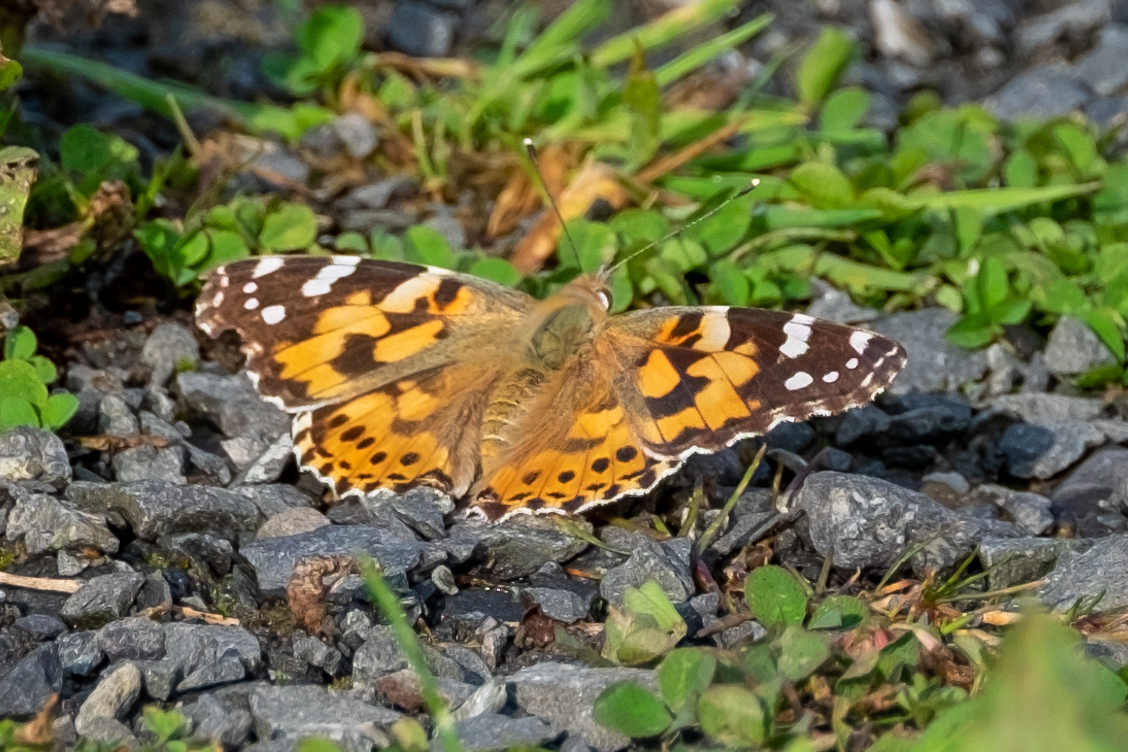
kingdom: Animalia
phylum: Arthropoda
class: Insecta
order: Lepidoptera
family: Nymphalidae
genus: Vanessa
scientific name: Vanessa cardui
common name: Painted lady
